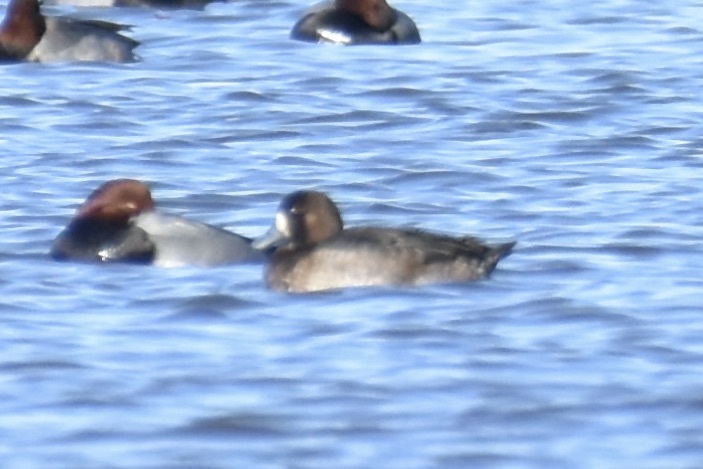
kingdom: Animalia
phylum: Chordata
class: Aves
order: Anseriformes
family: Anatidae
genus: Aythya
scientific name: Aythya americana
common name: Redhead
